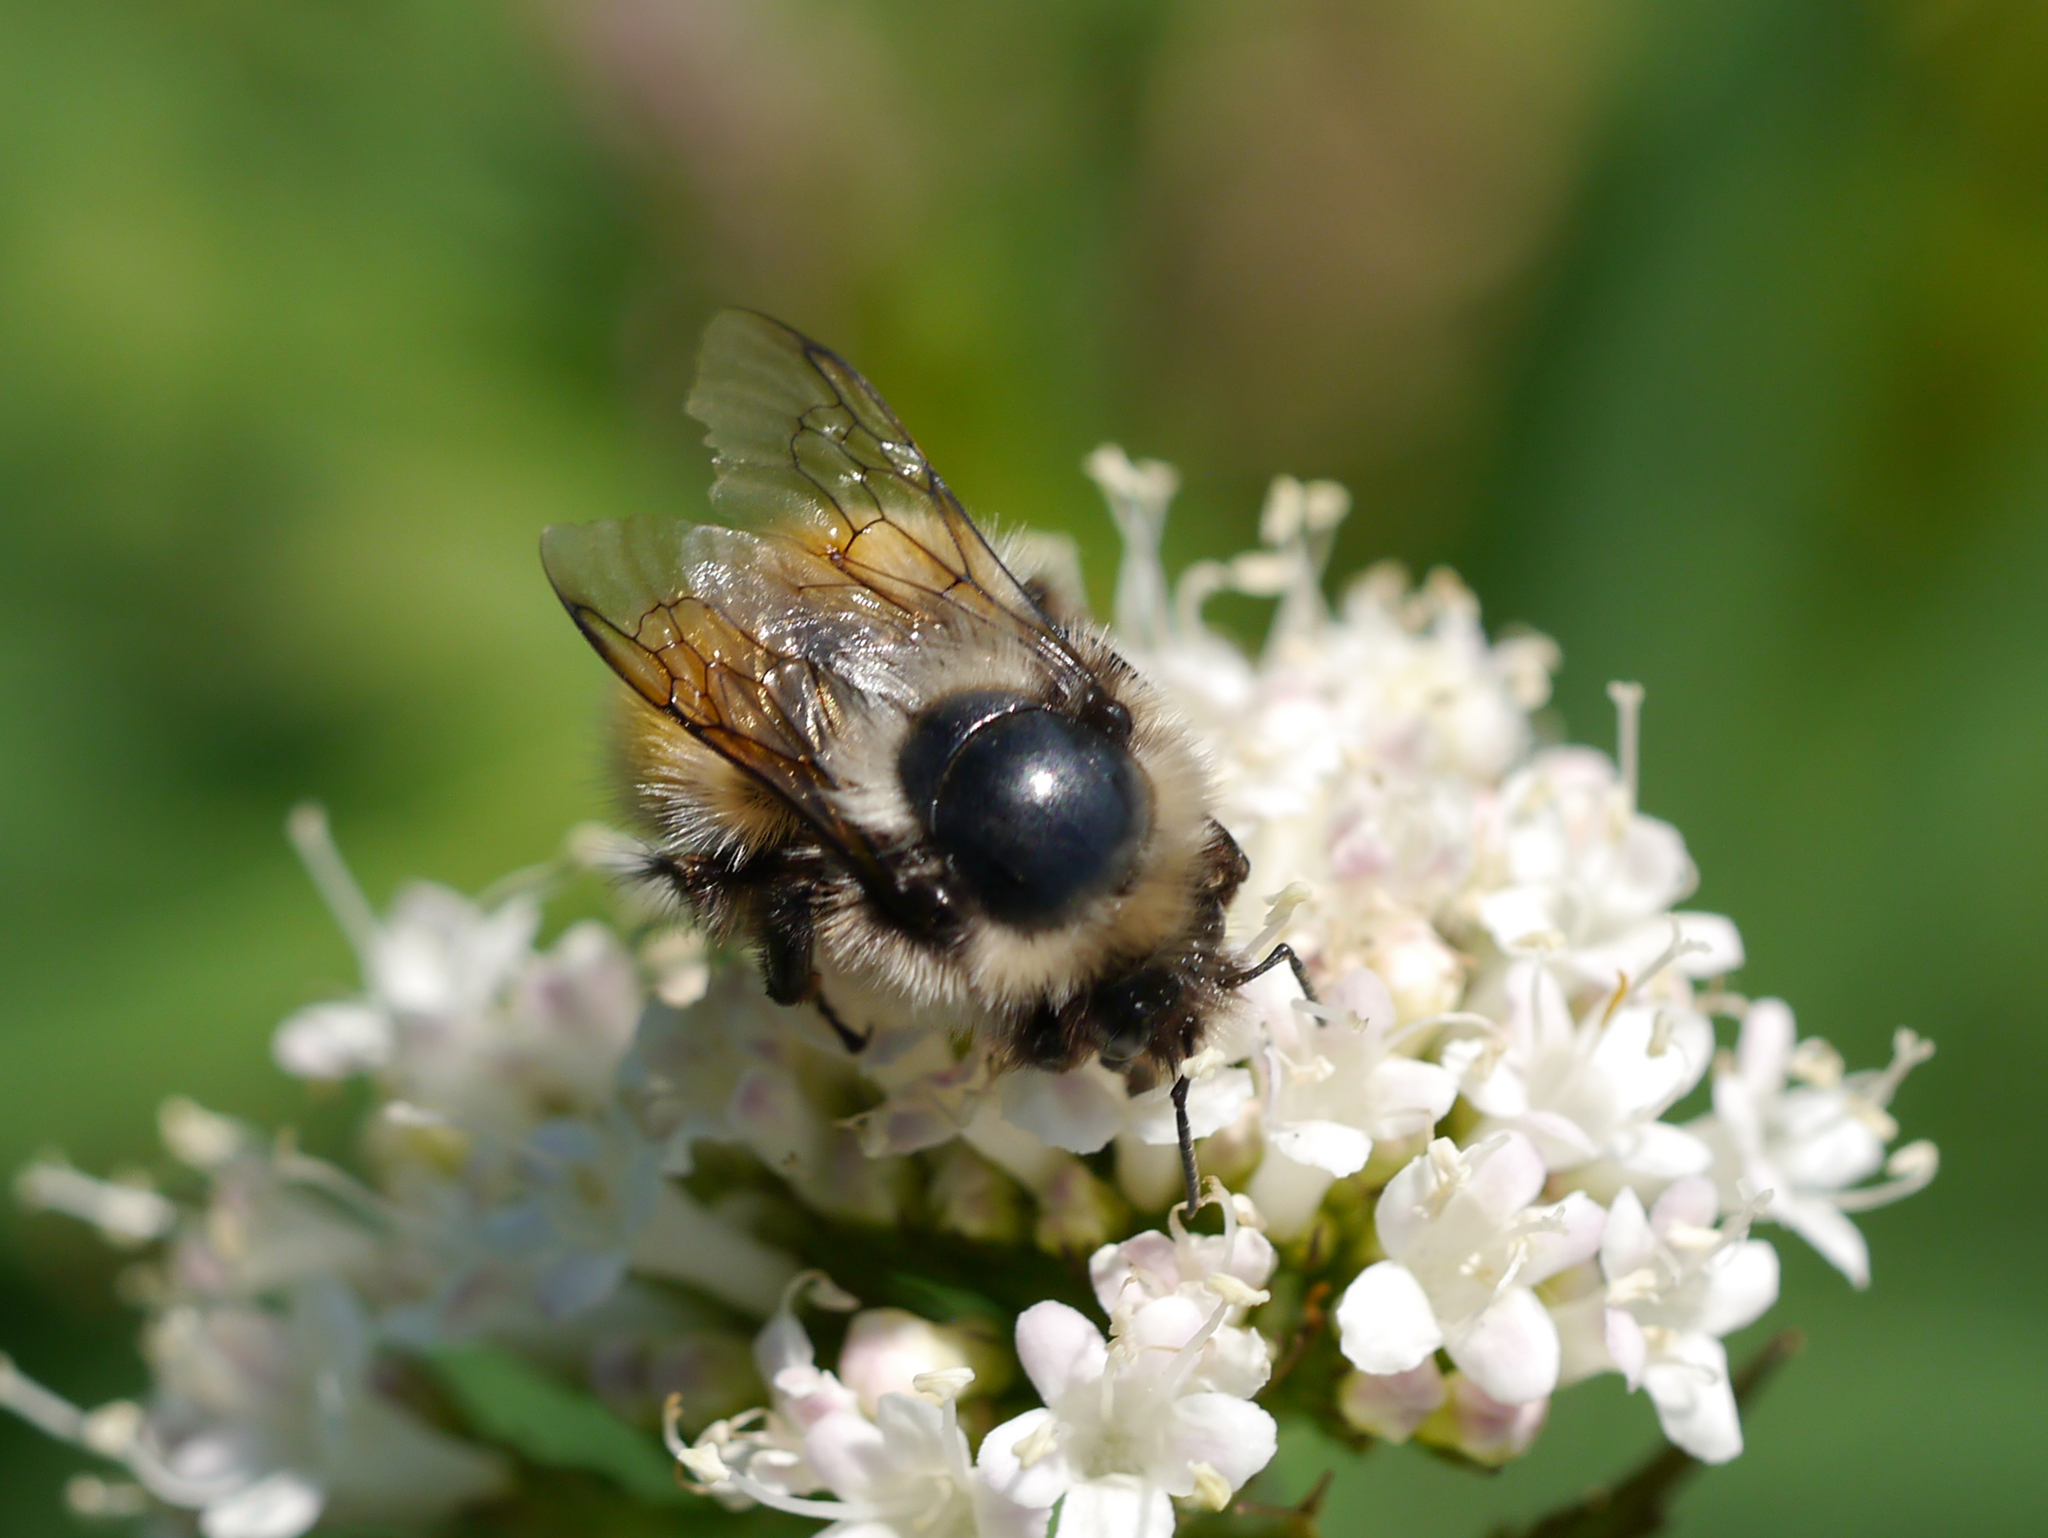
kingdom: Animalia
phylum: Arthropoda
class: Insecta
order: Hymenoptera
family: Apidae
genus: Bombus
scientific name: Bombus sylvicola
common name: Forest bumble bee
